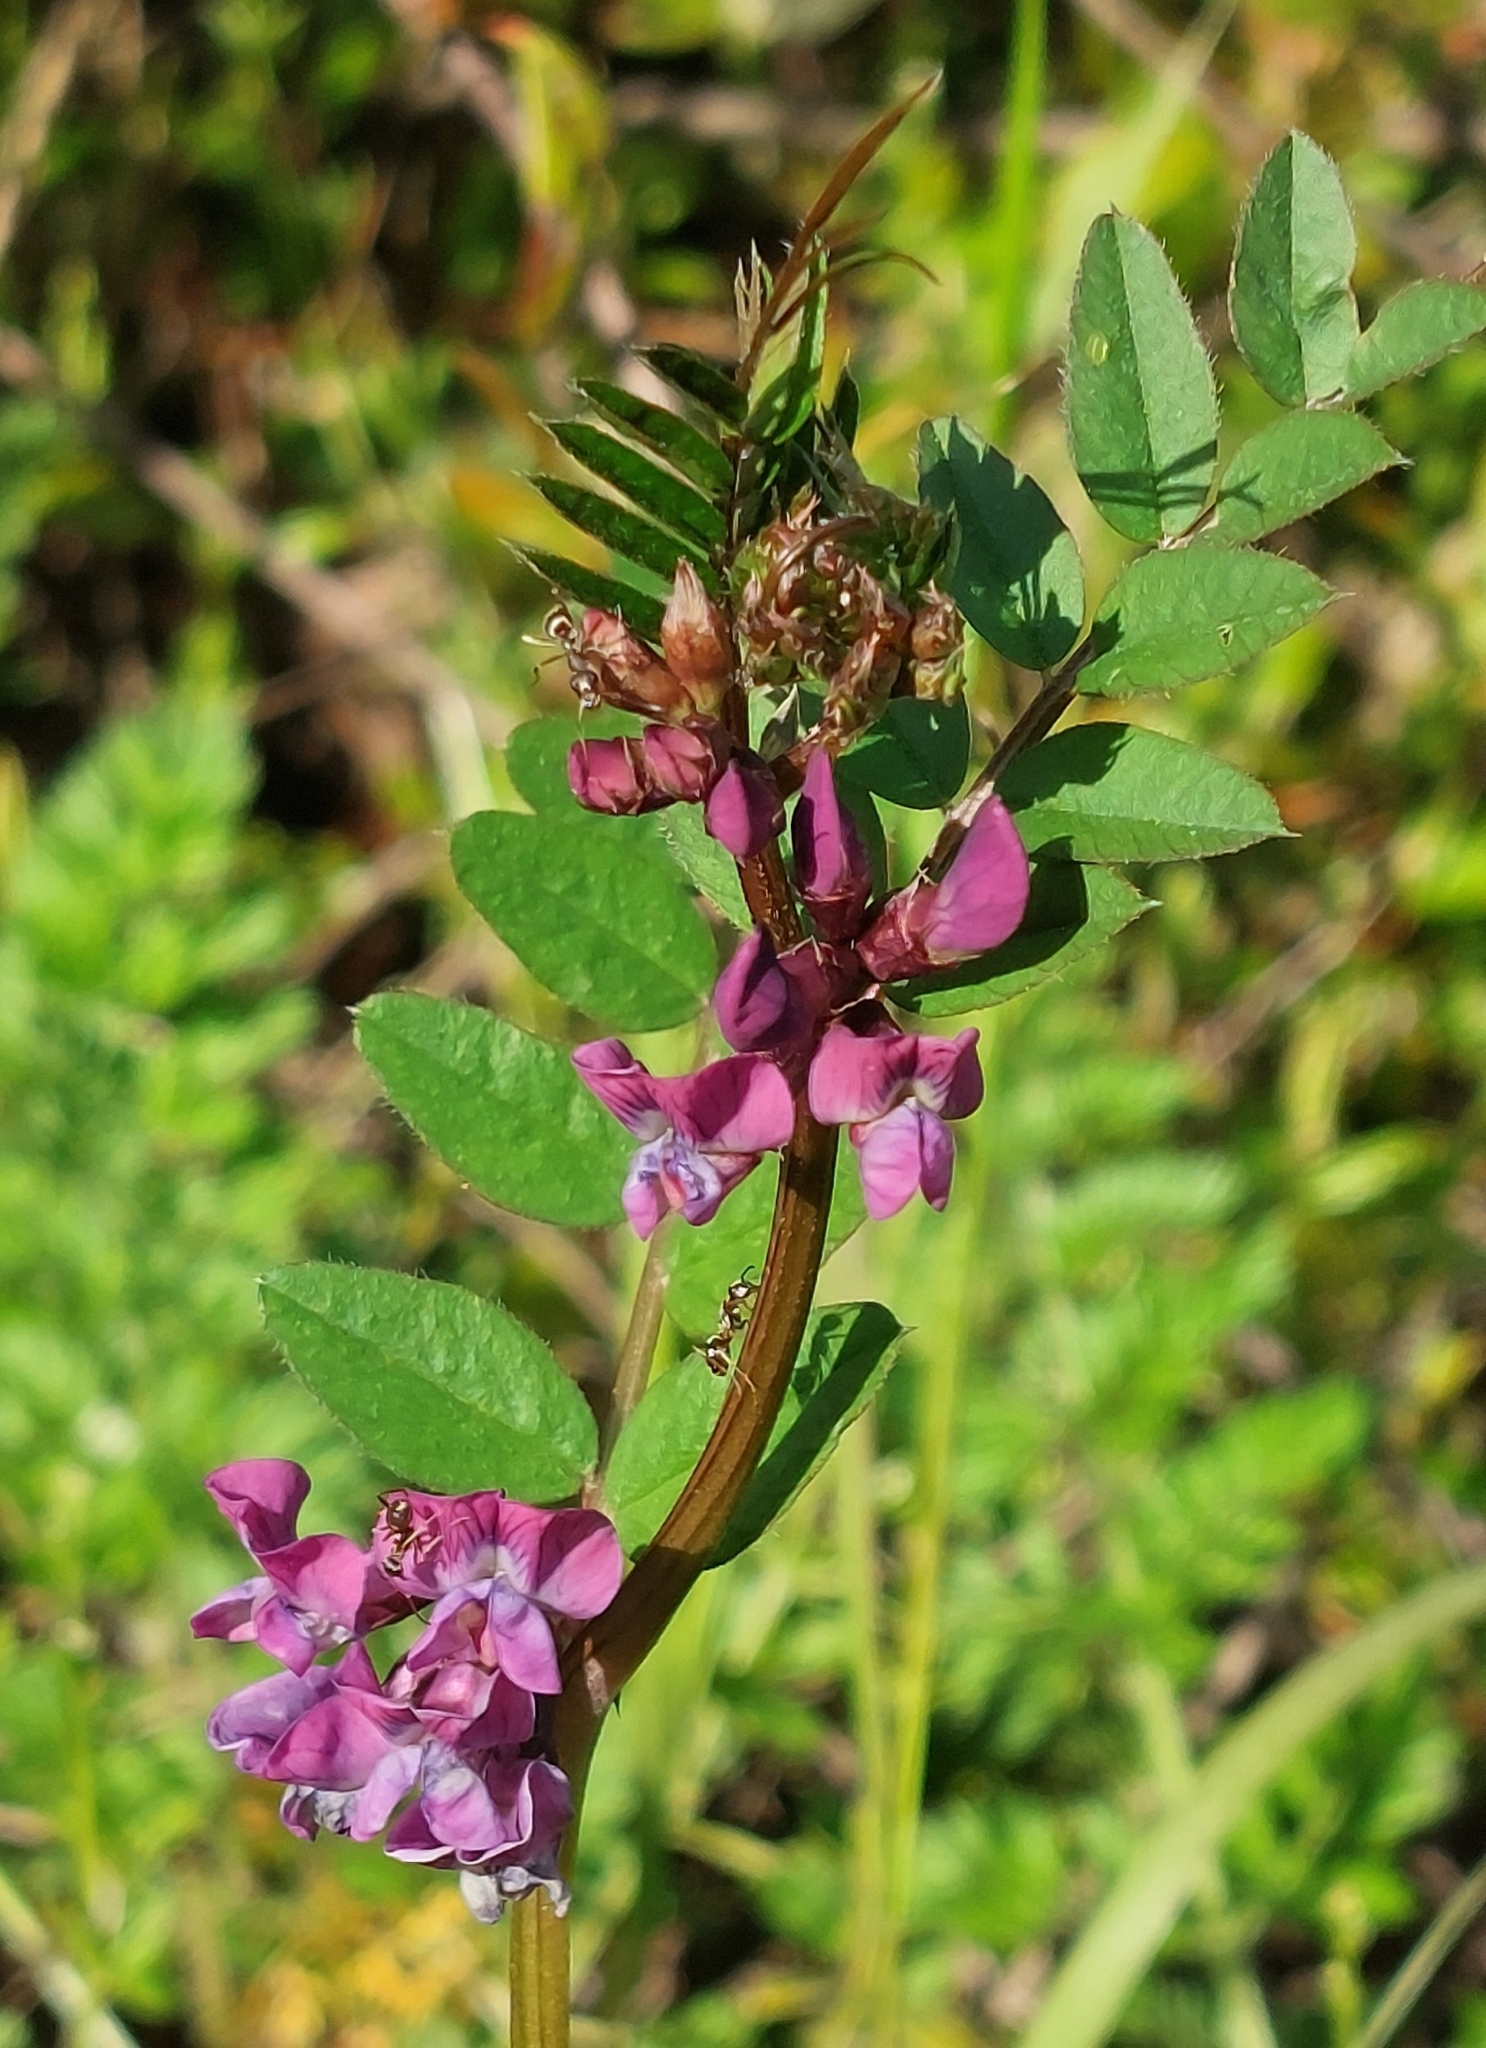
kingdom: Plantae
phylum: Tracheophyta
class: Magnoliopsida
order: Fabales
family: Fabaceae
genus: Vicia
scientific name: Vicia sepium
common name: Bush vetch
